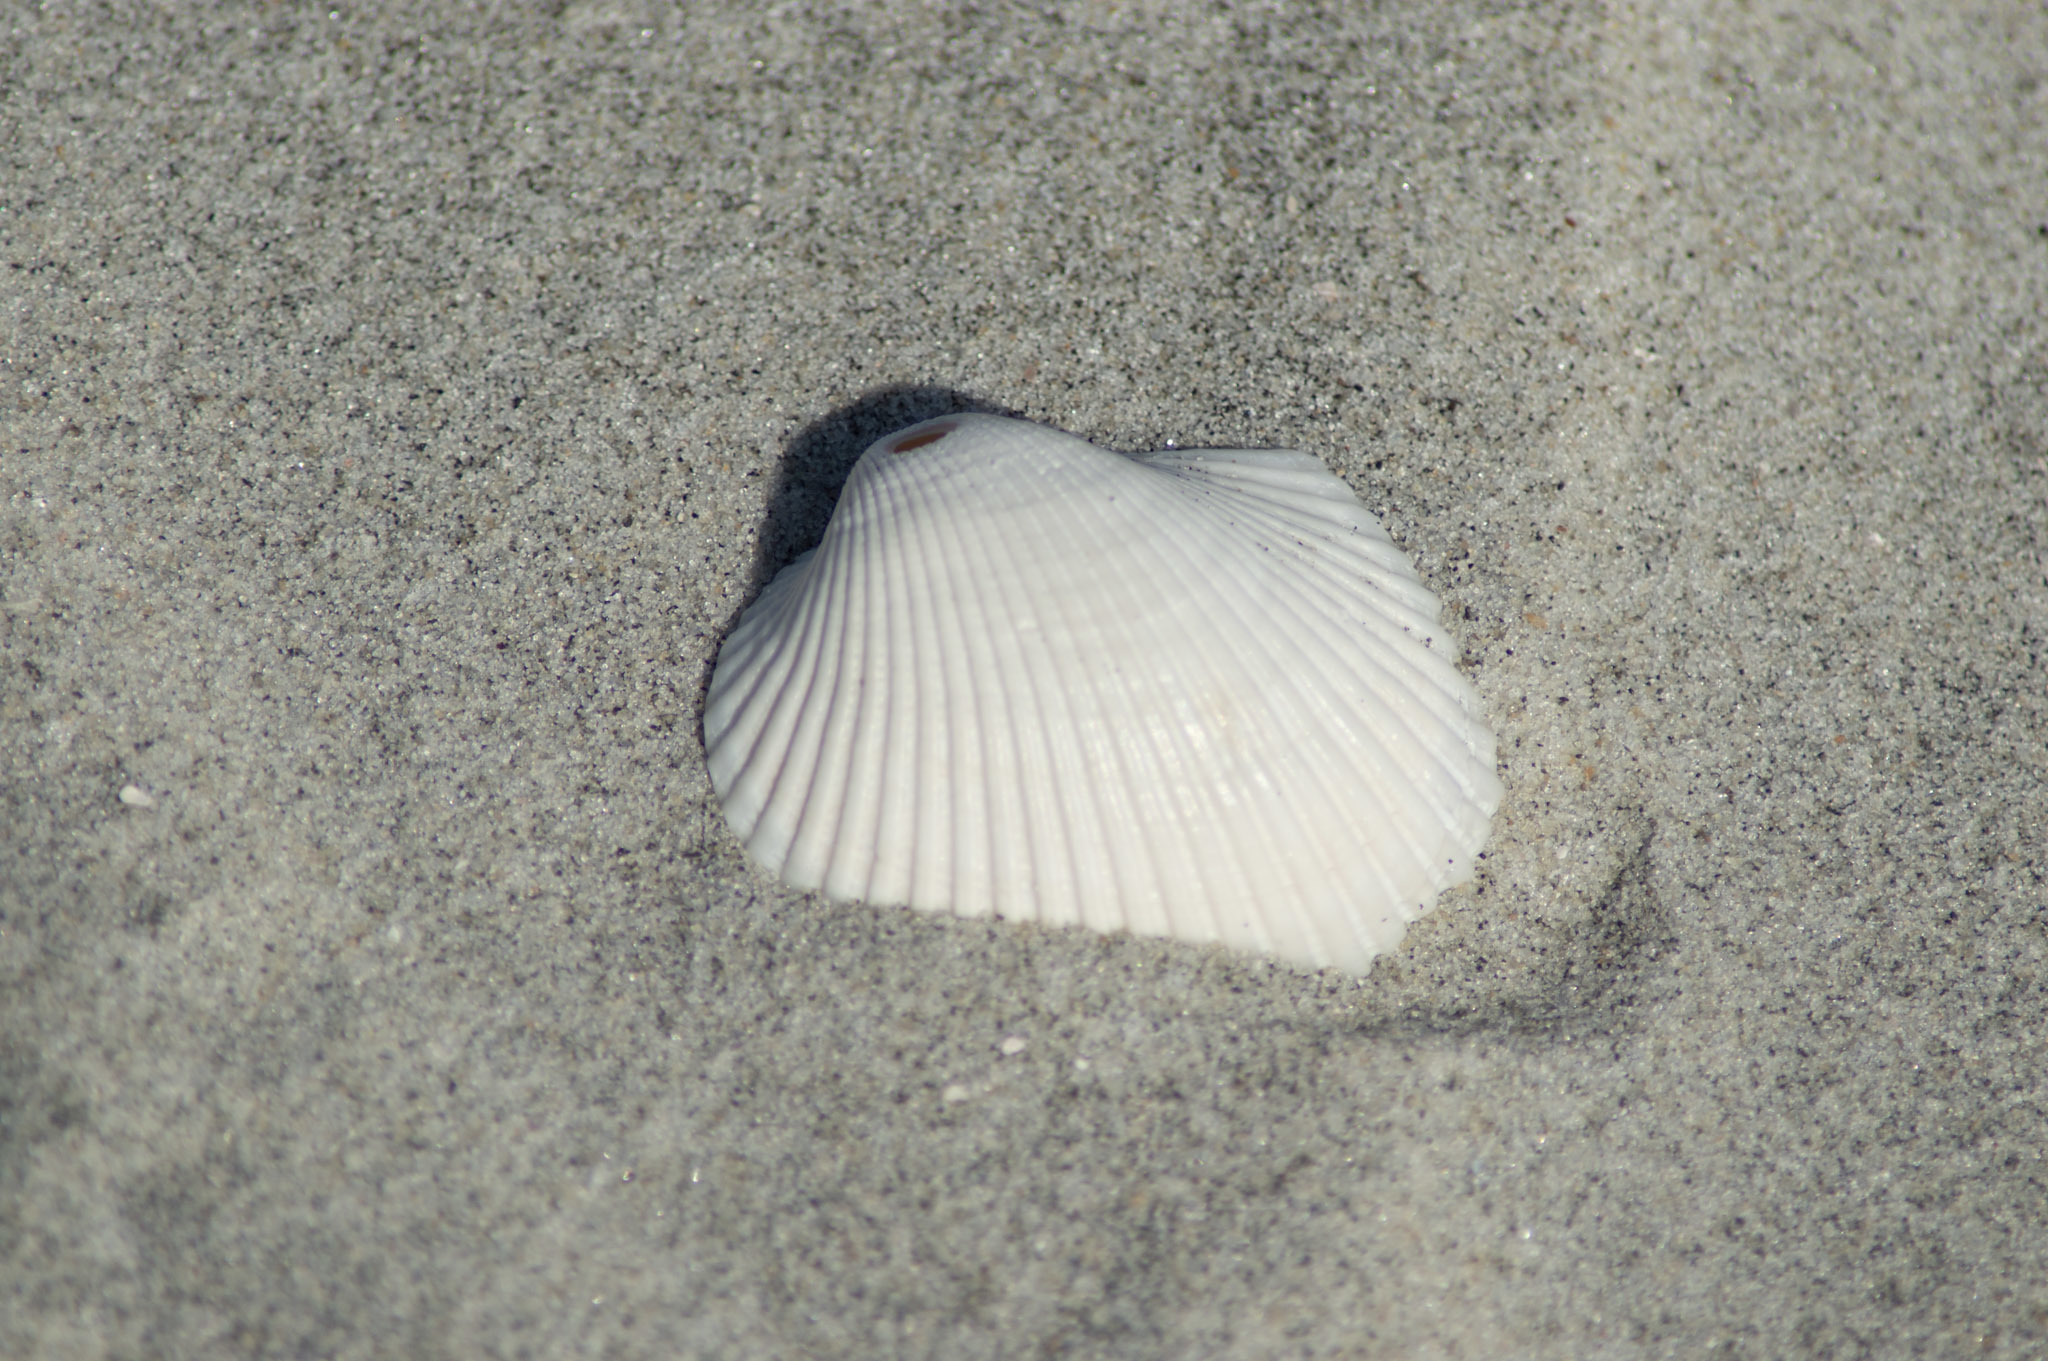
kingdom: Animalia
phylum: Mollusca
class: Bivalvia
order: Arcida
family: Arcidae
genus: Lunarca
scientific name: Lunarca ovalis
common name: Blood ark
